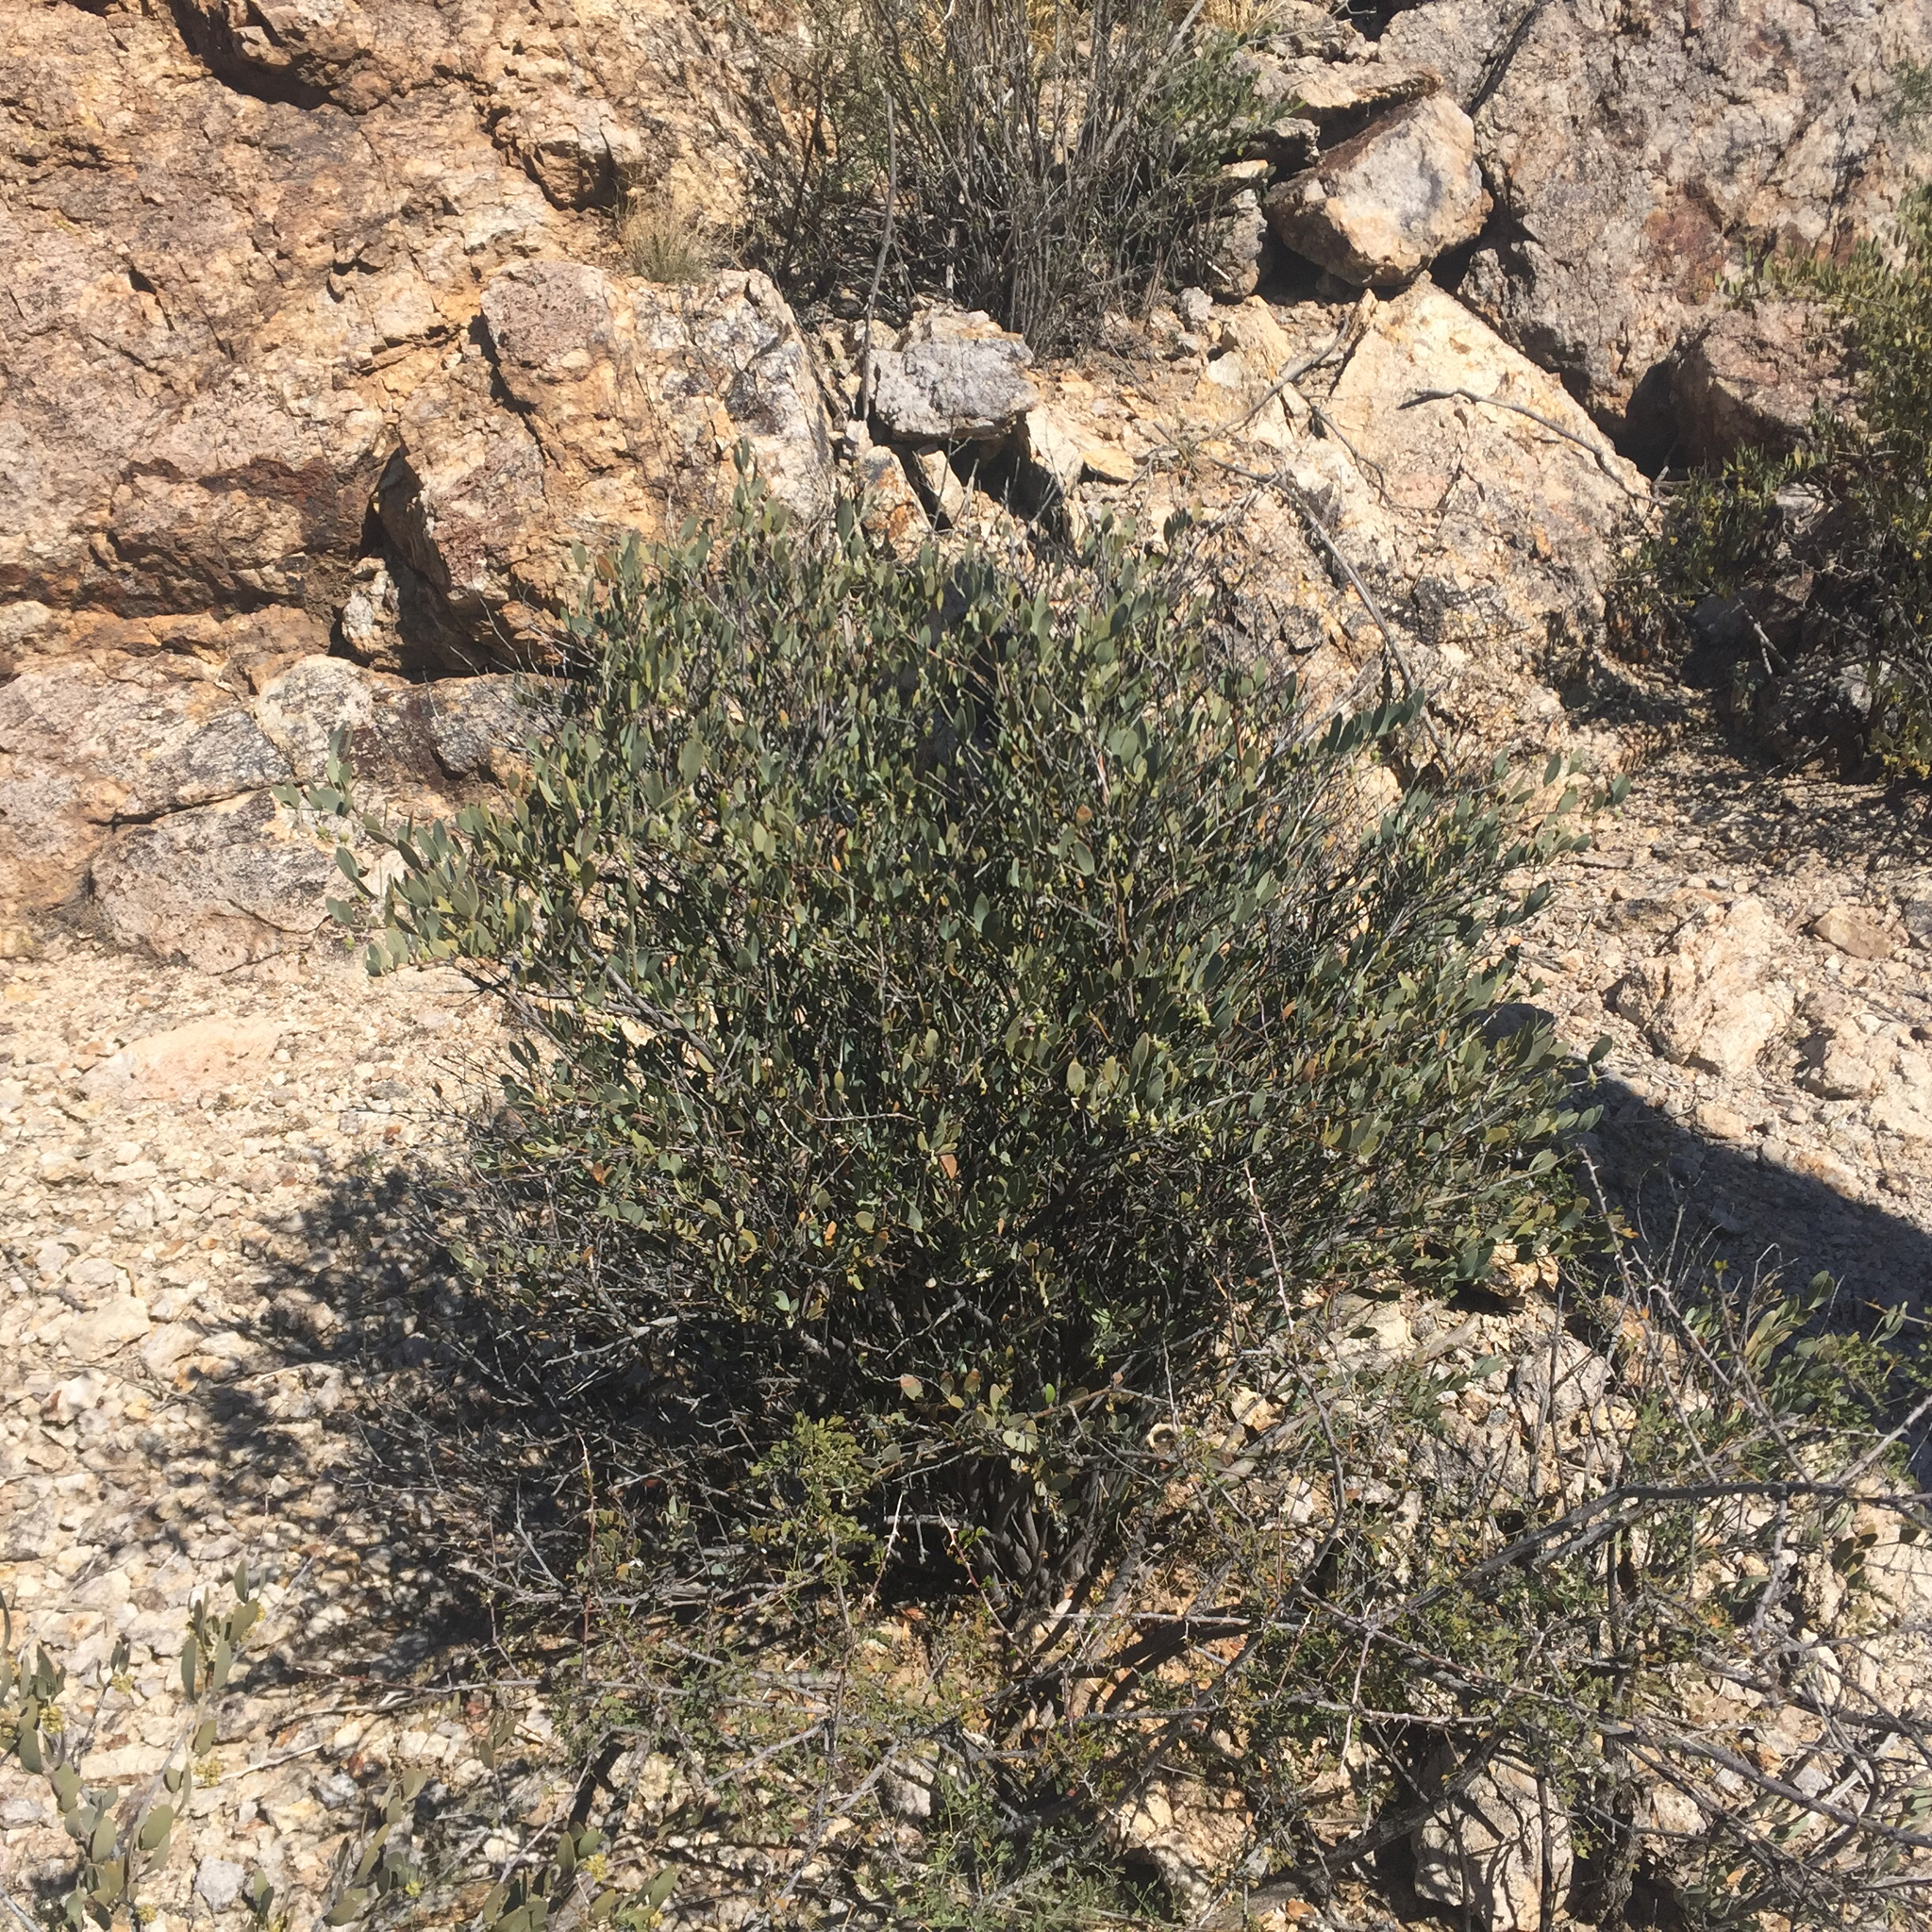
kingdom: Plantae
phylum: Tracheophyta
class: Magnoliopsida
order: Caryophyllales
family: Simmondsiaceae
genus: Simmondsia
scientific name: Simmondsia chinensis
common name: Jojoba
